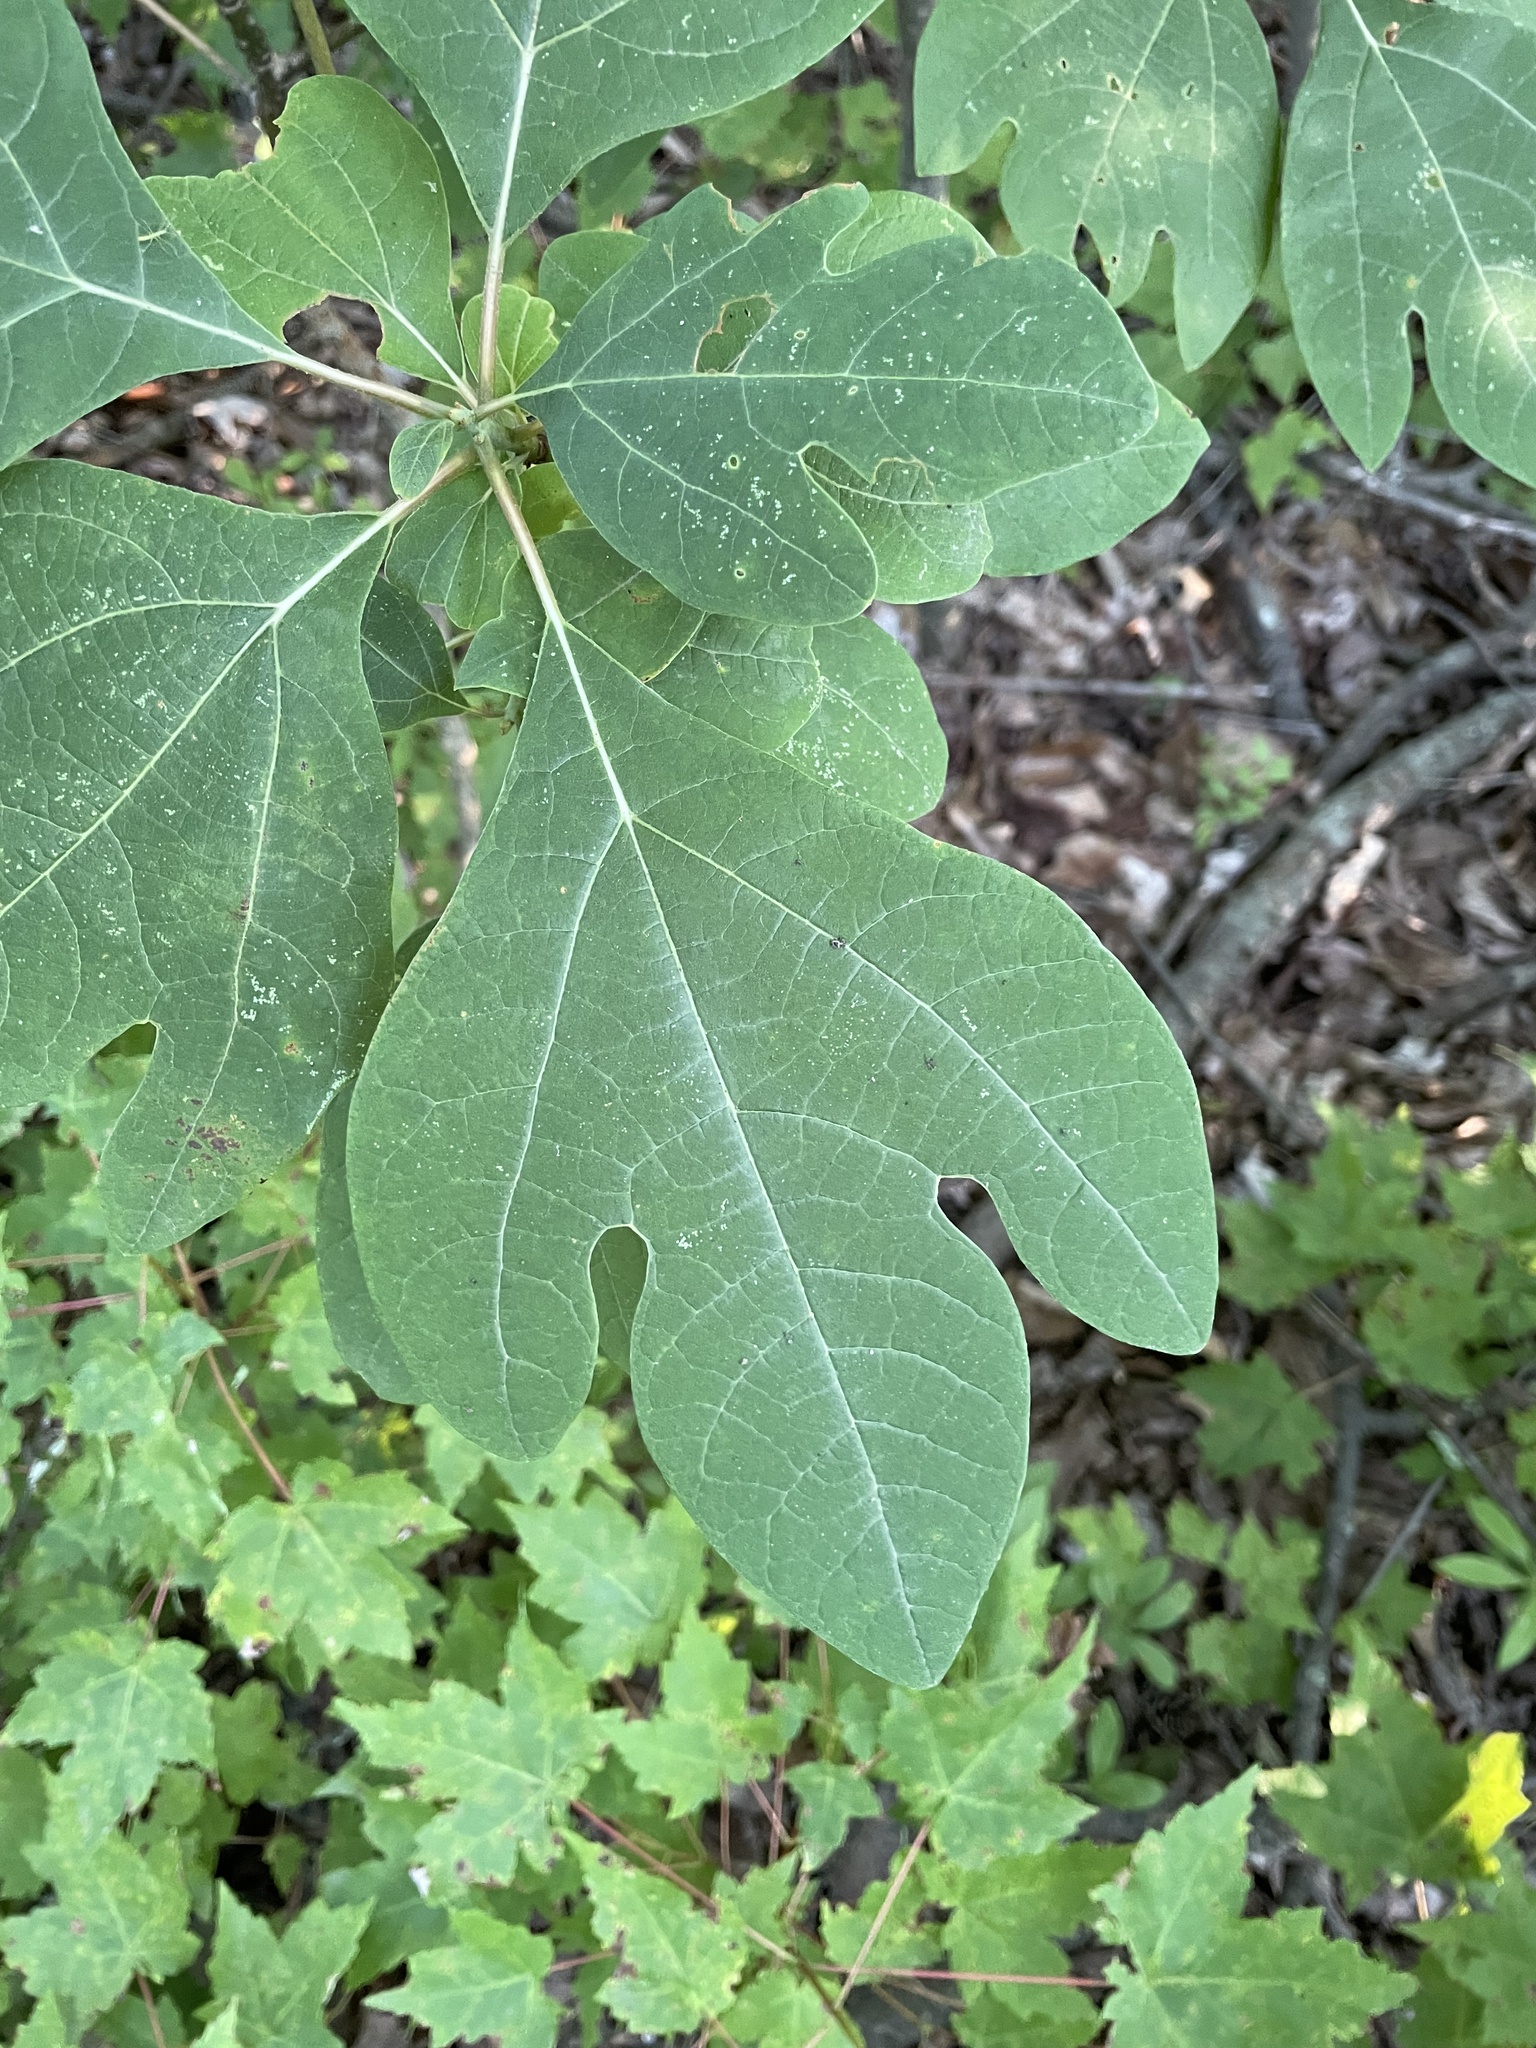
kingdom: Plantae
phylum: Tracheophyta
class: Magnoliopsida
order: Laurales
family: Lauraceae
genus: Sassafras
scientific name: Sassafras albidum
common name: Sassafras
